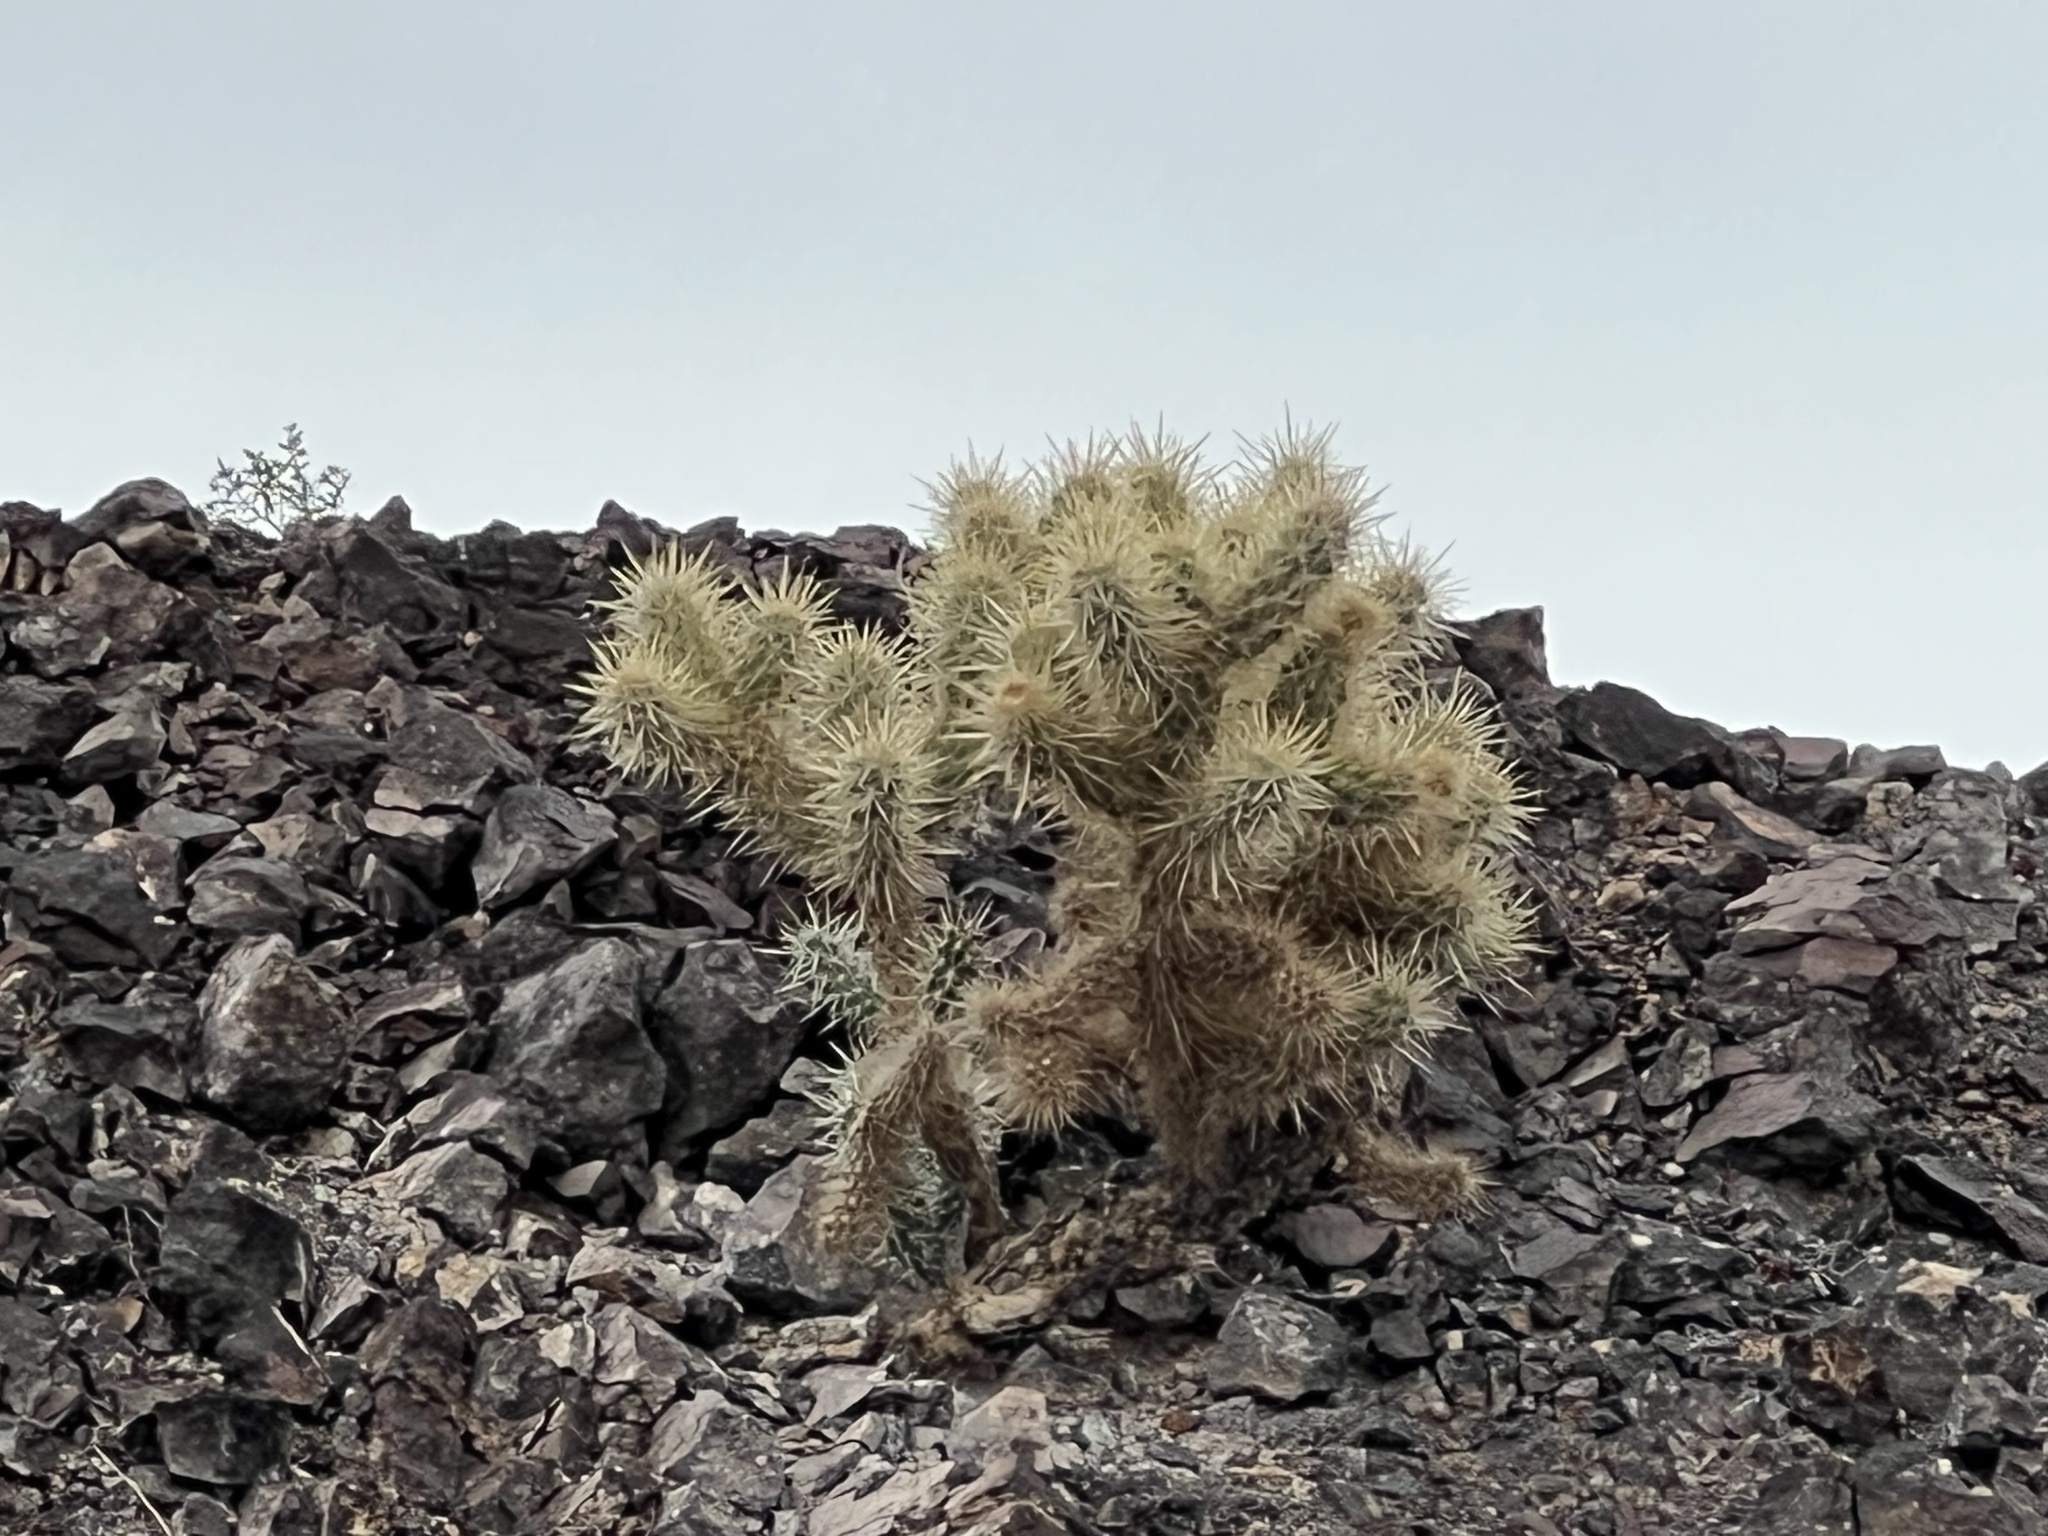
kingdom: Plantae
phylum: Tracheophyta
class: Magnoliopsida
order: Caryophyllales
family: Cactaceae
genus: Cylindropuntia
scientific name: Cylindropuntia echinocarpa
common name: Ground cholla
